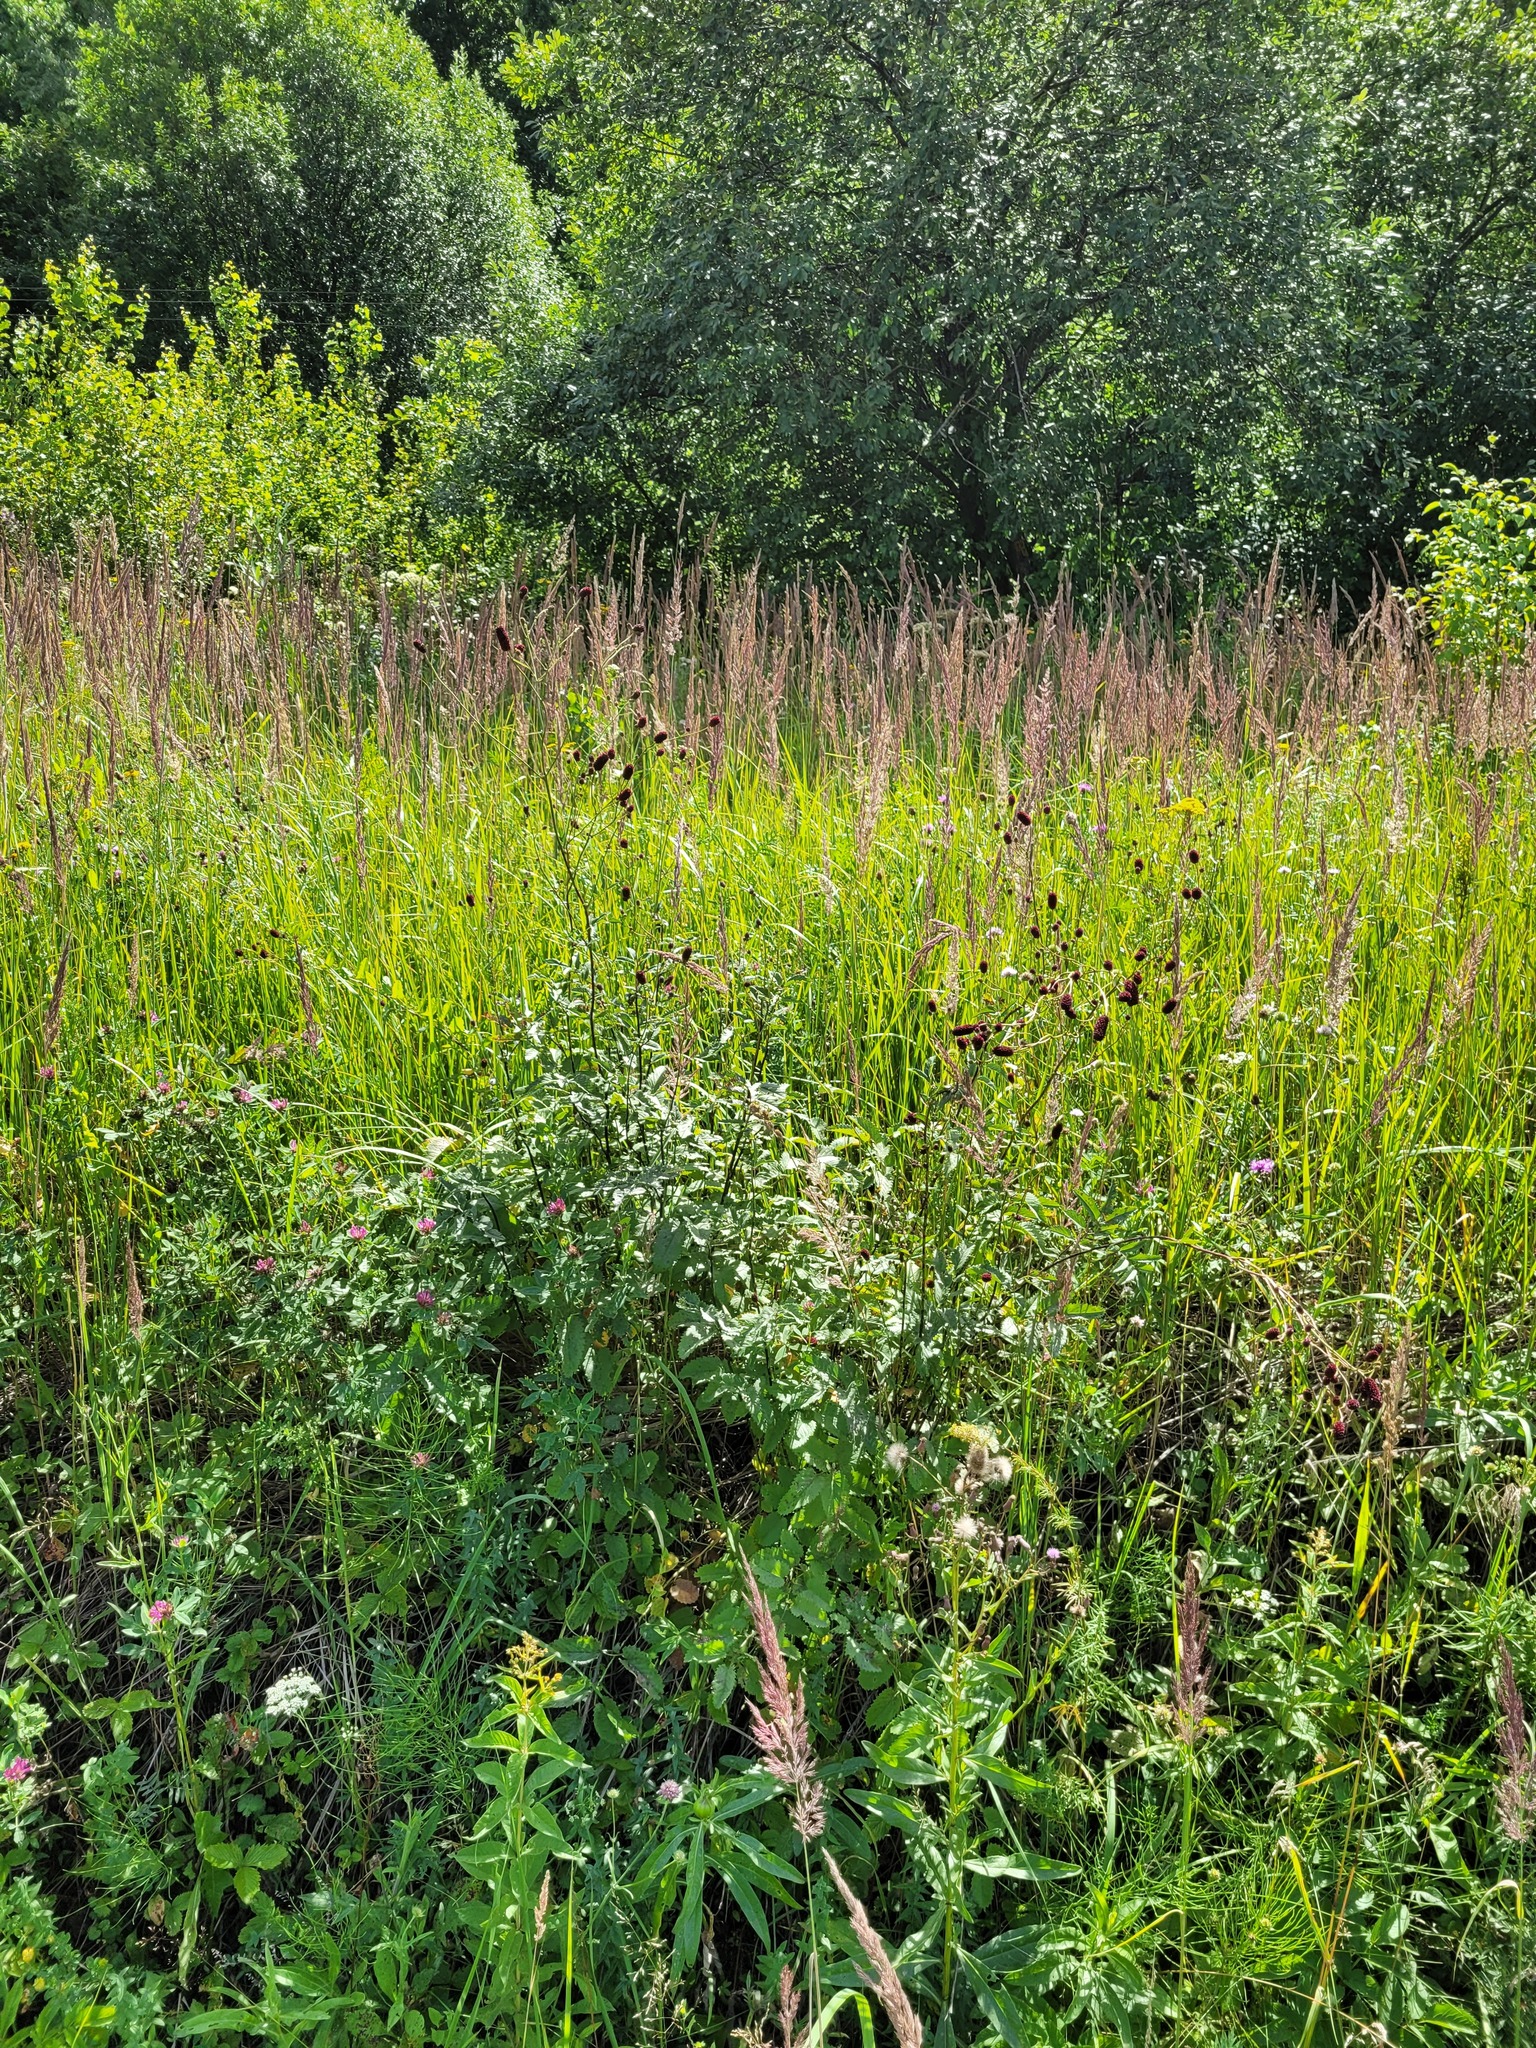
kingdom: Plantae
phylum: Tracheophyta
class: Magnoliopsida
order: Rosales
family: Rosaceae
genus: Sanguisorba
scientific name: Sanguisorba officinalis
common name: Great burnet
